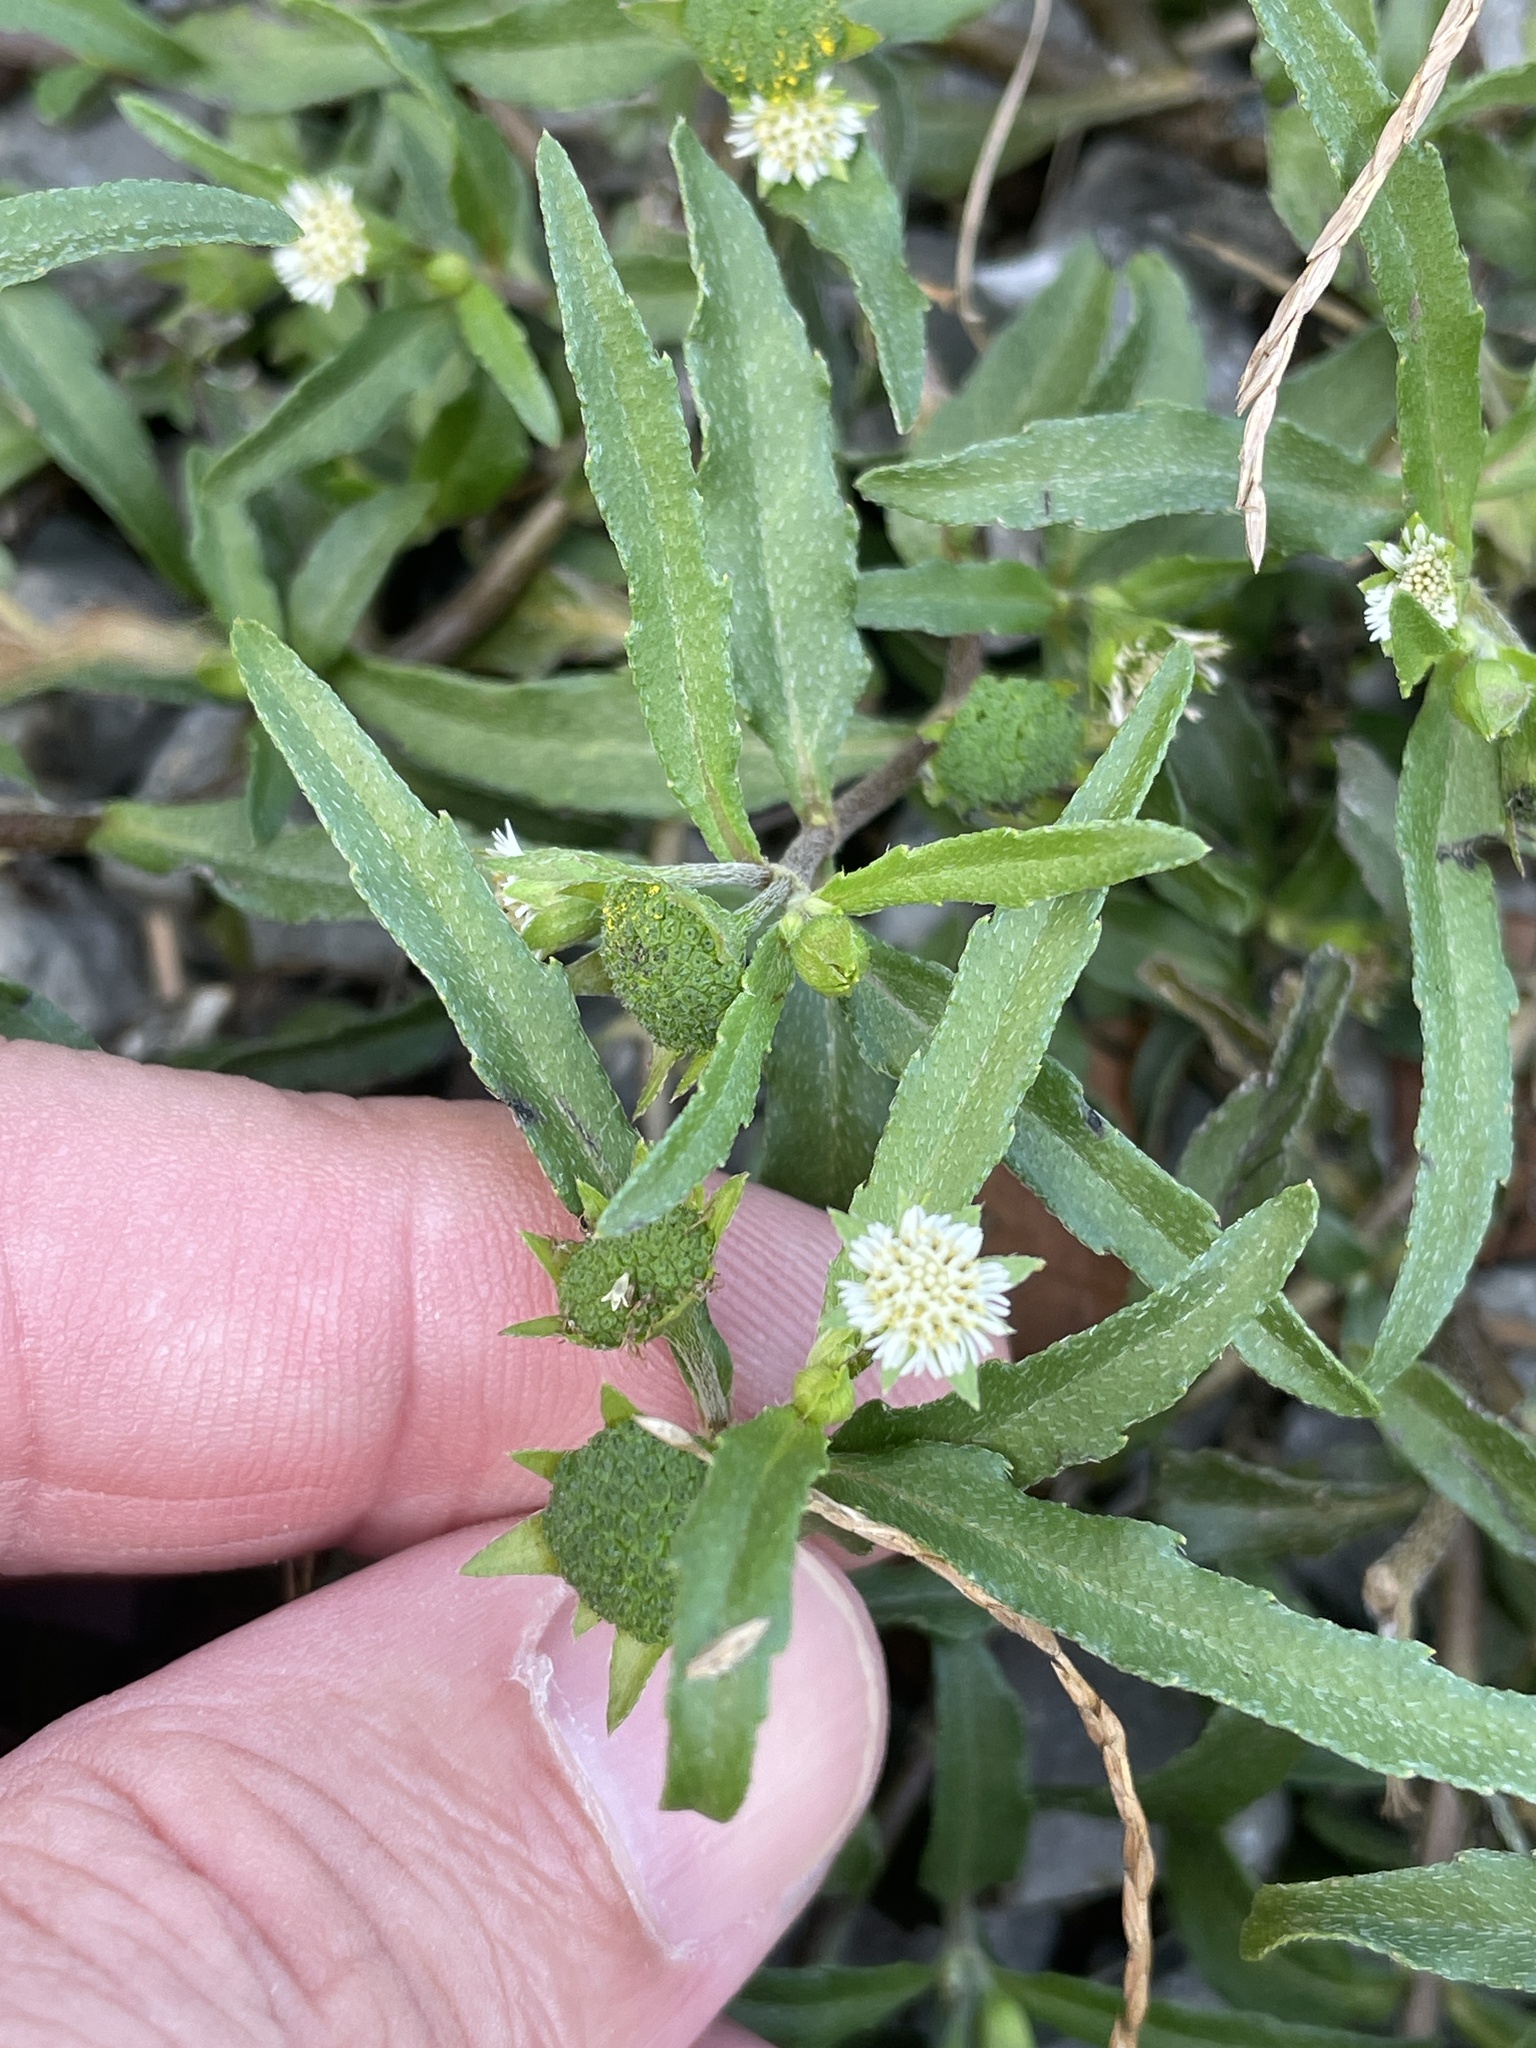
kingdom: Plantae
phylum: Tracheophyta
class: Magnoliopsida
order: Asterales
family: Asteraceae
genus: Eclipta
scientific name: Eclipta prostrata
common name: False daisy
